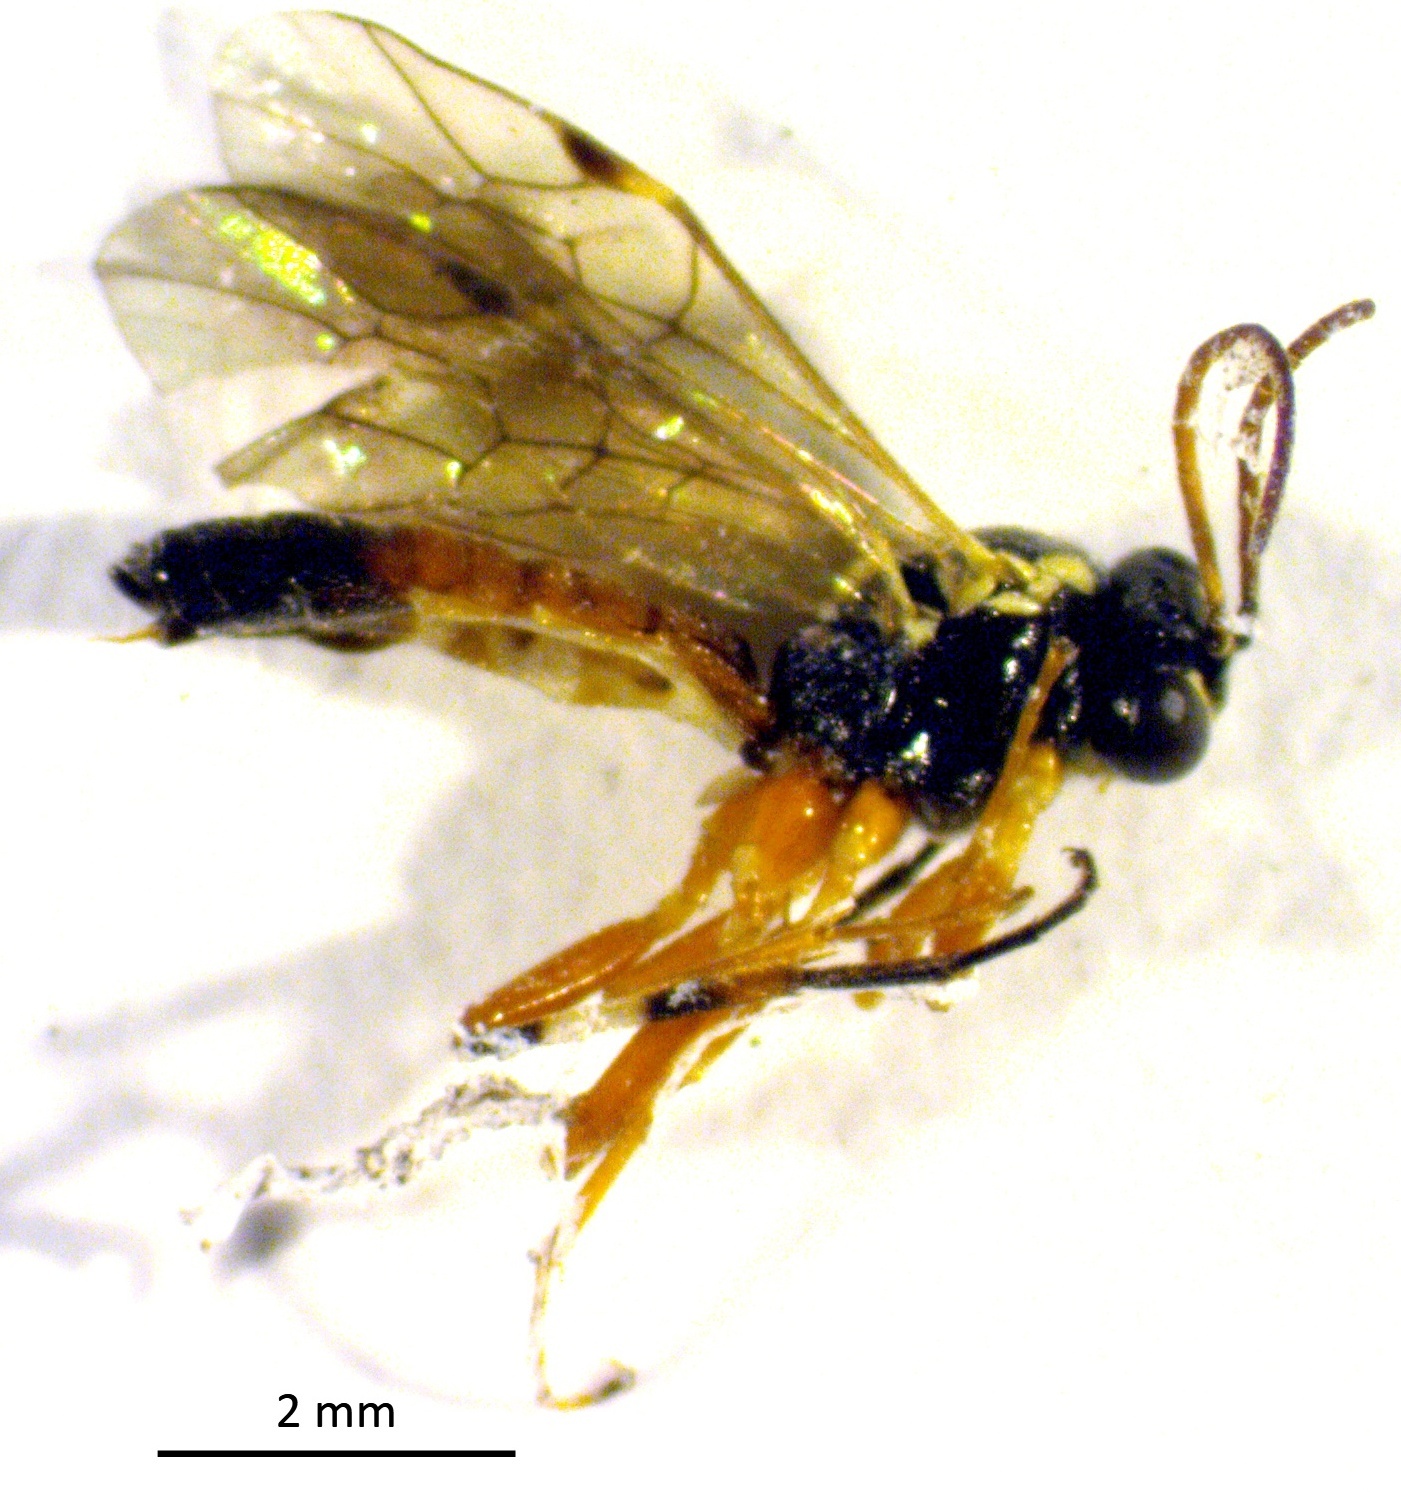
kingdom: Animalia
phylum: Arthropoda
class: Insecta
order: Hymenoptera
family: Ichneumonidae
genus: Diplazon
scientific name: Diplazon laetatorius
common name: Parasitoid wasp
